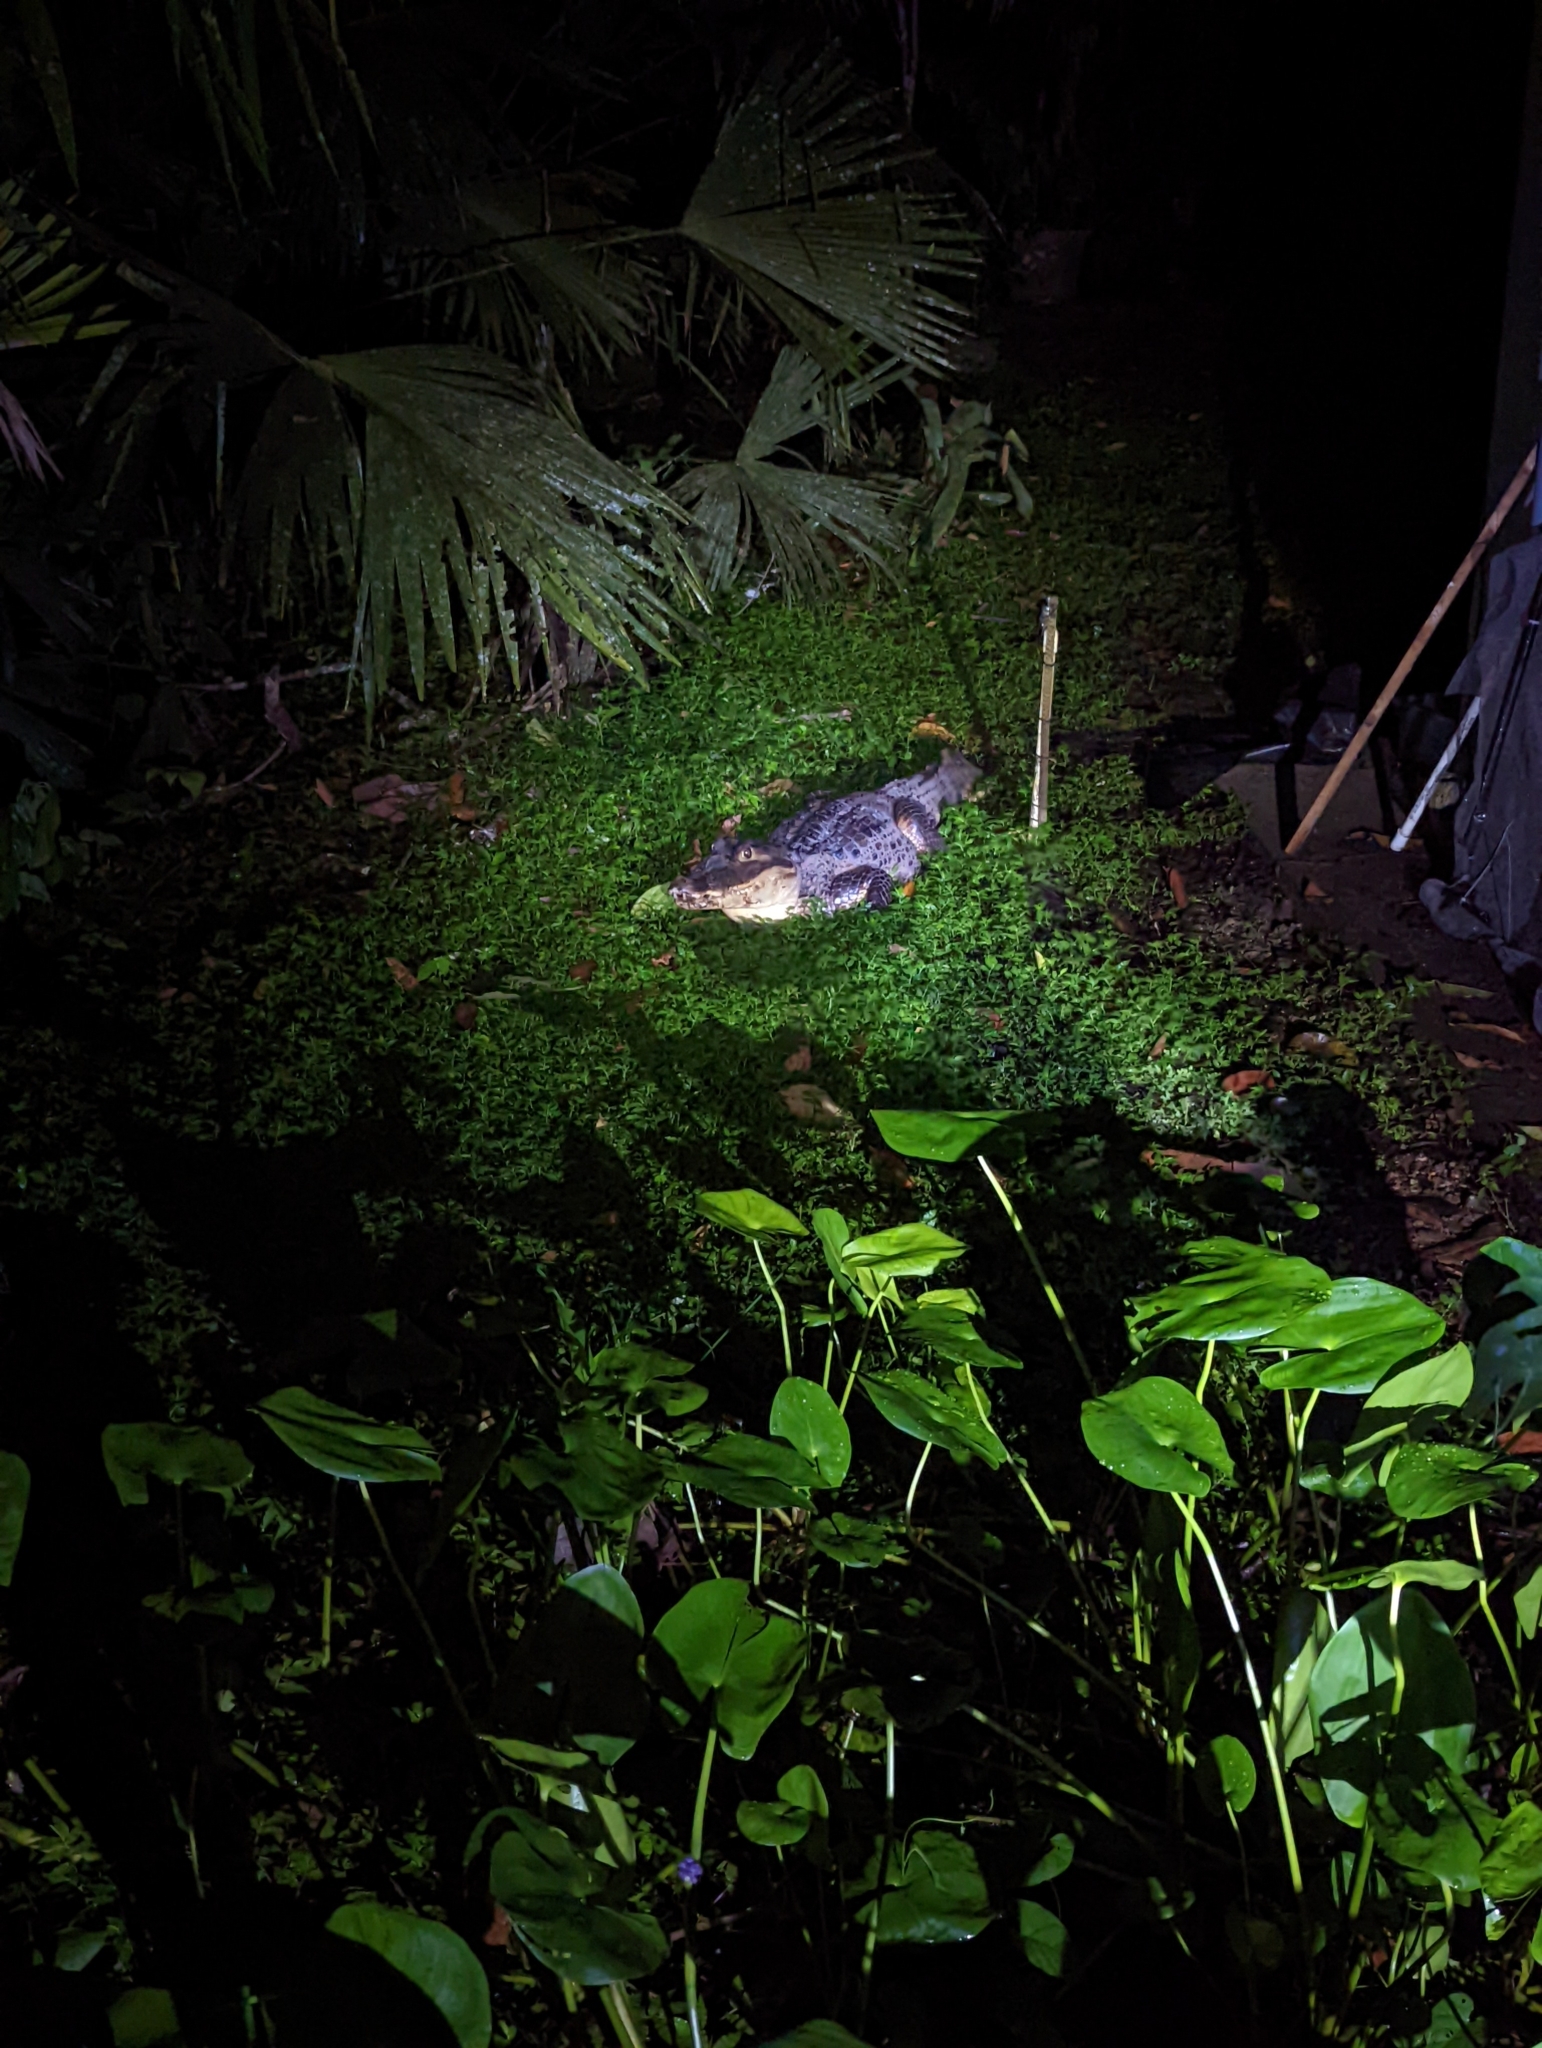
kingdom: Animalia
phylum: Chordata
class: Crocodylia
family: Alligatoridae
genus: Caiman
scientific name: Caiman crocodilus
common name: Common caiman
